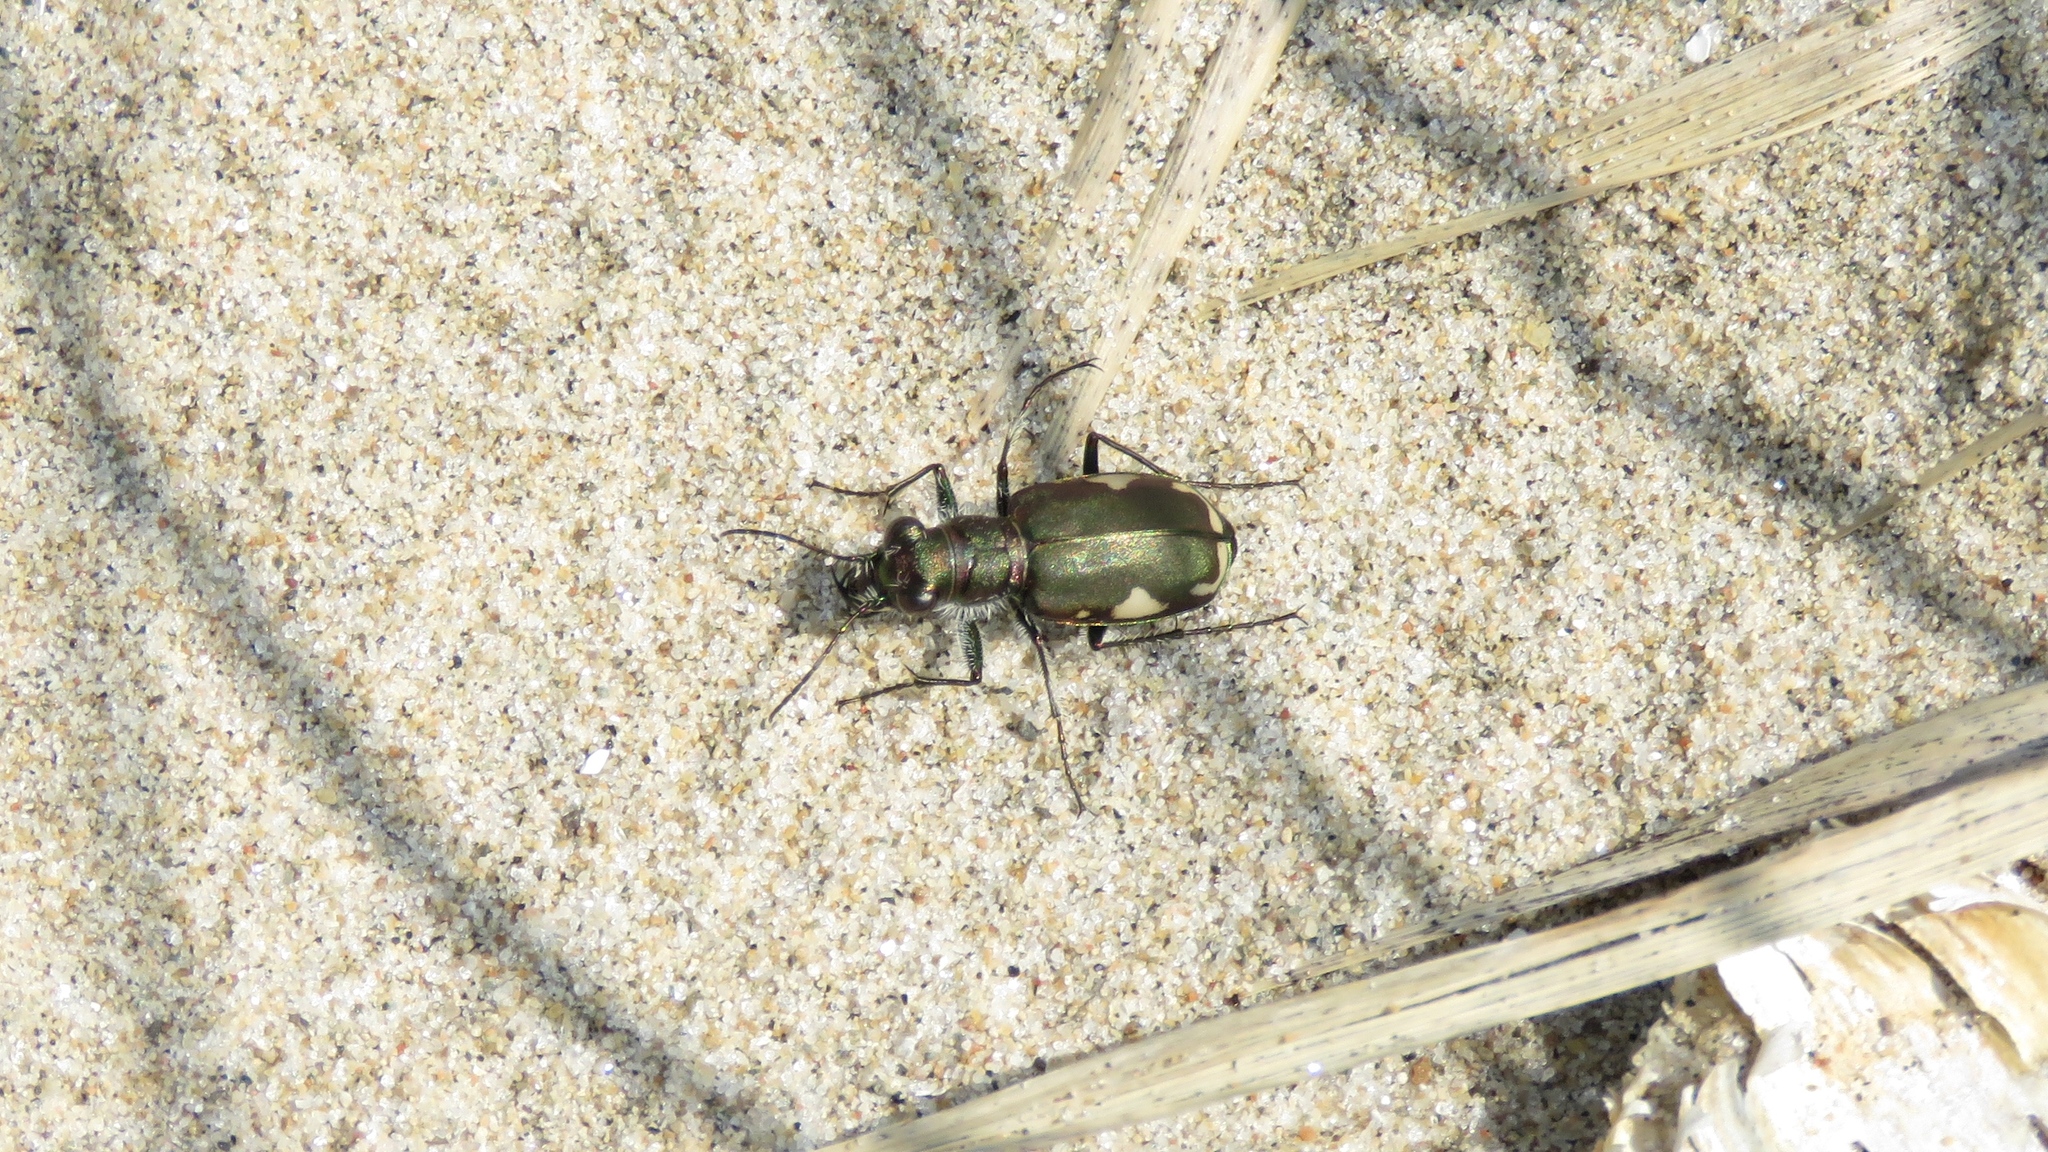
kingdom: Animalia
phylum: Arthropoda
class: Insecta
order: Coleoptera
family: Carabidae
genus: Cicindela
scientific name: Cicindela scutellaris
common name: Festive tiger beetle
